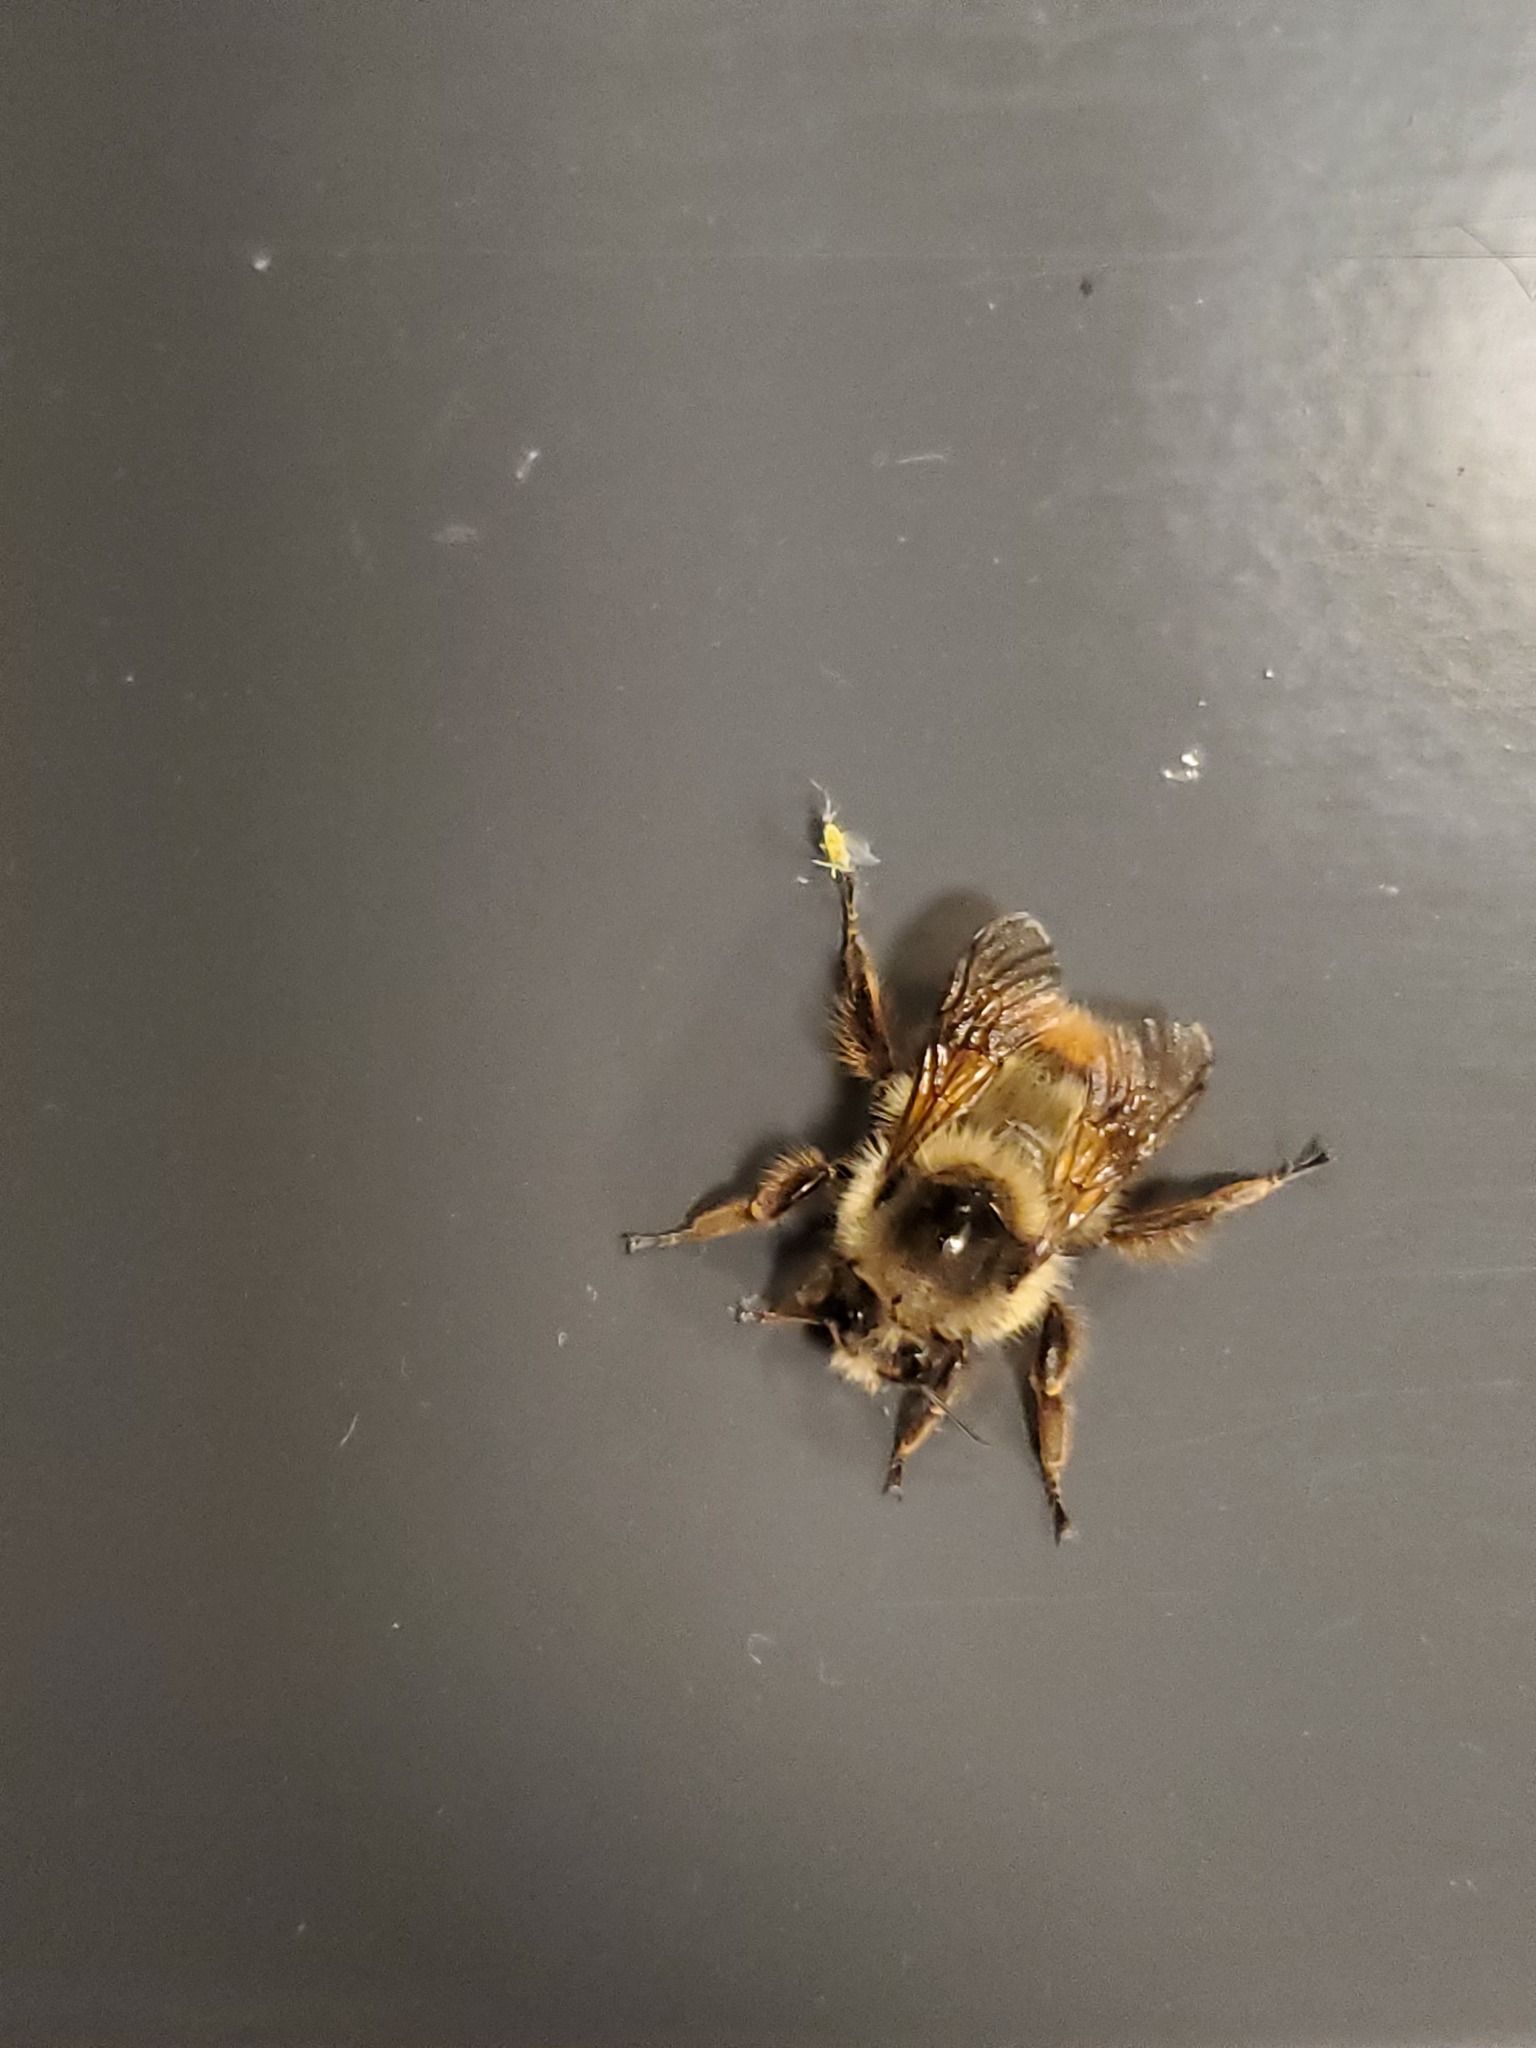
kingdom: Animalia
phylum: Arthropoda
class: Insecta
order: Hymenoptera
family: Apidae
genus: Bombus
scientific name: Bombus mixtus
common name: Fuzzy-horned bumble bee
